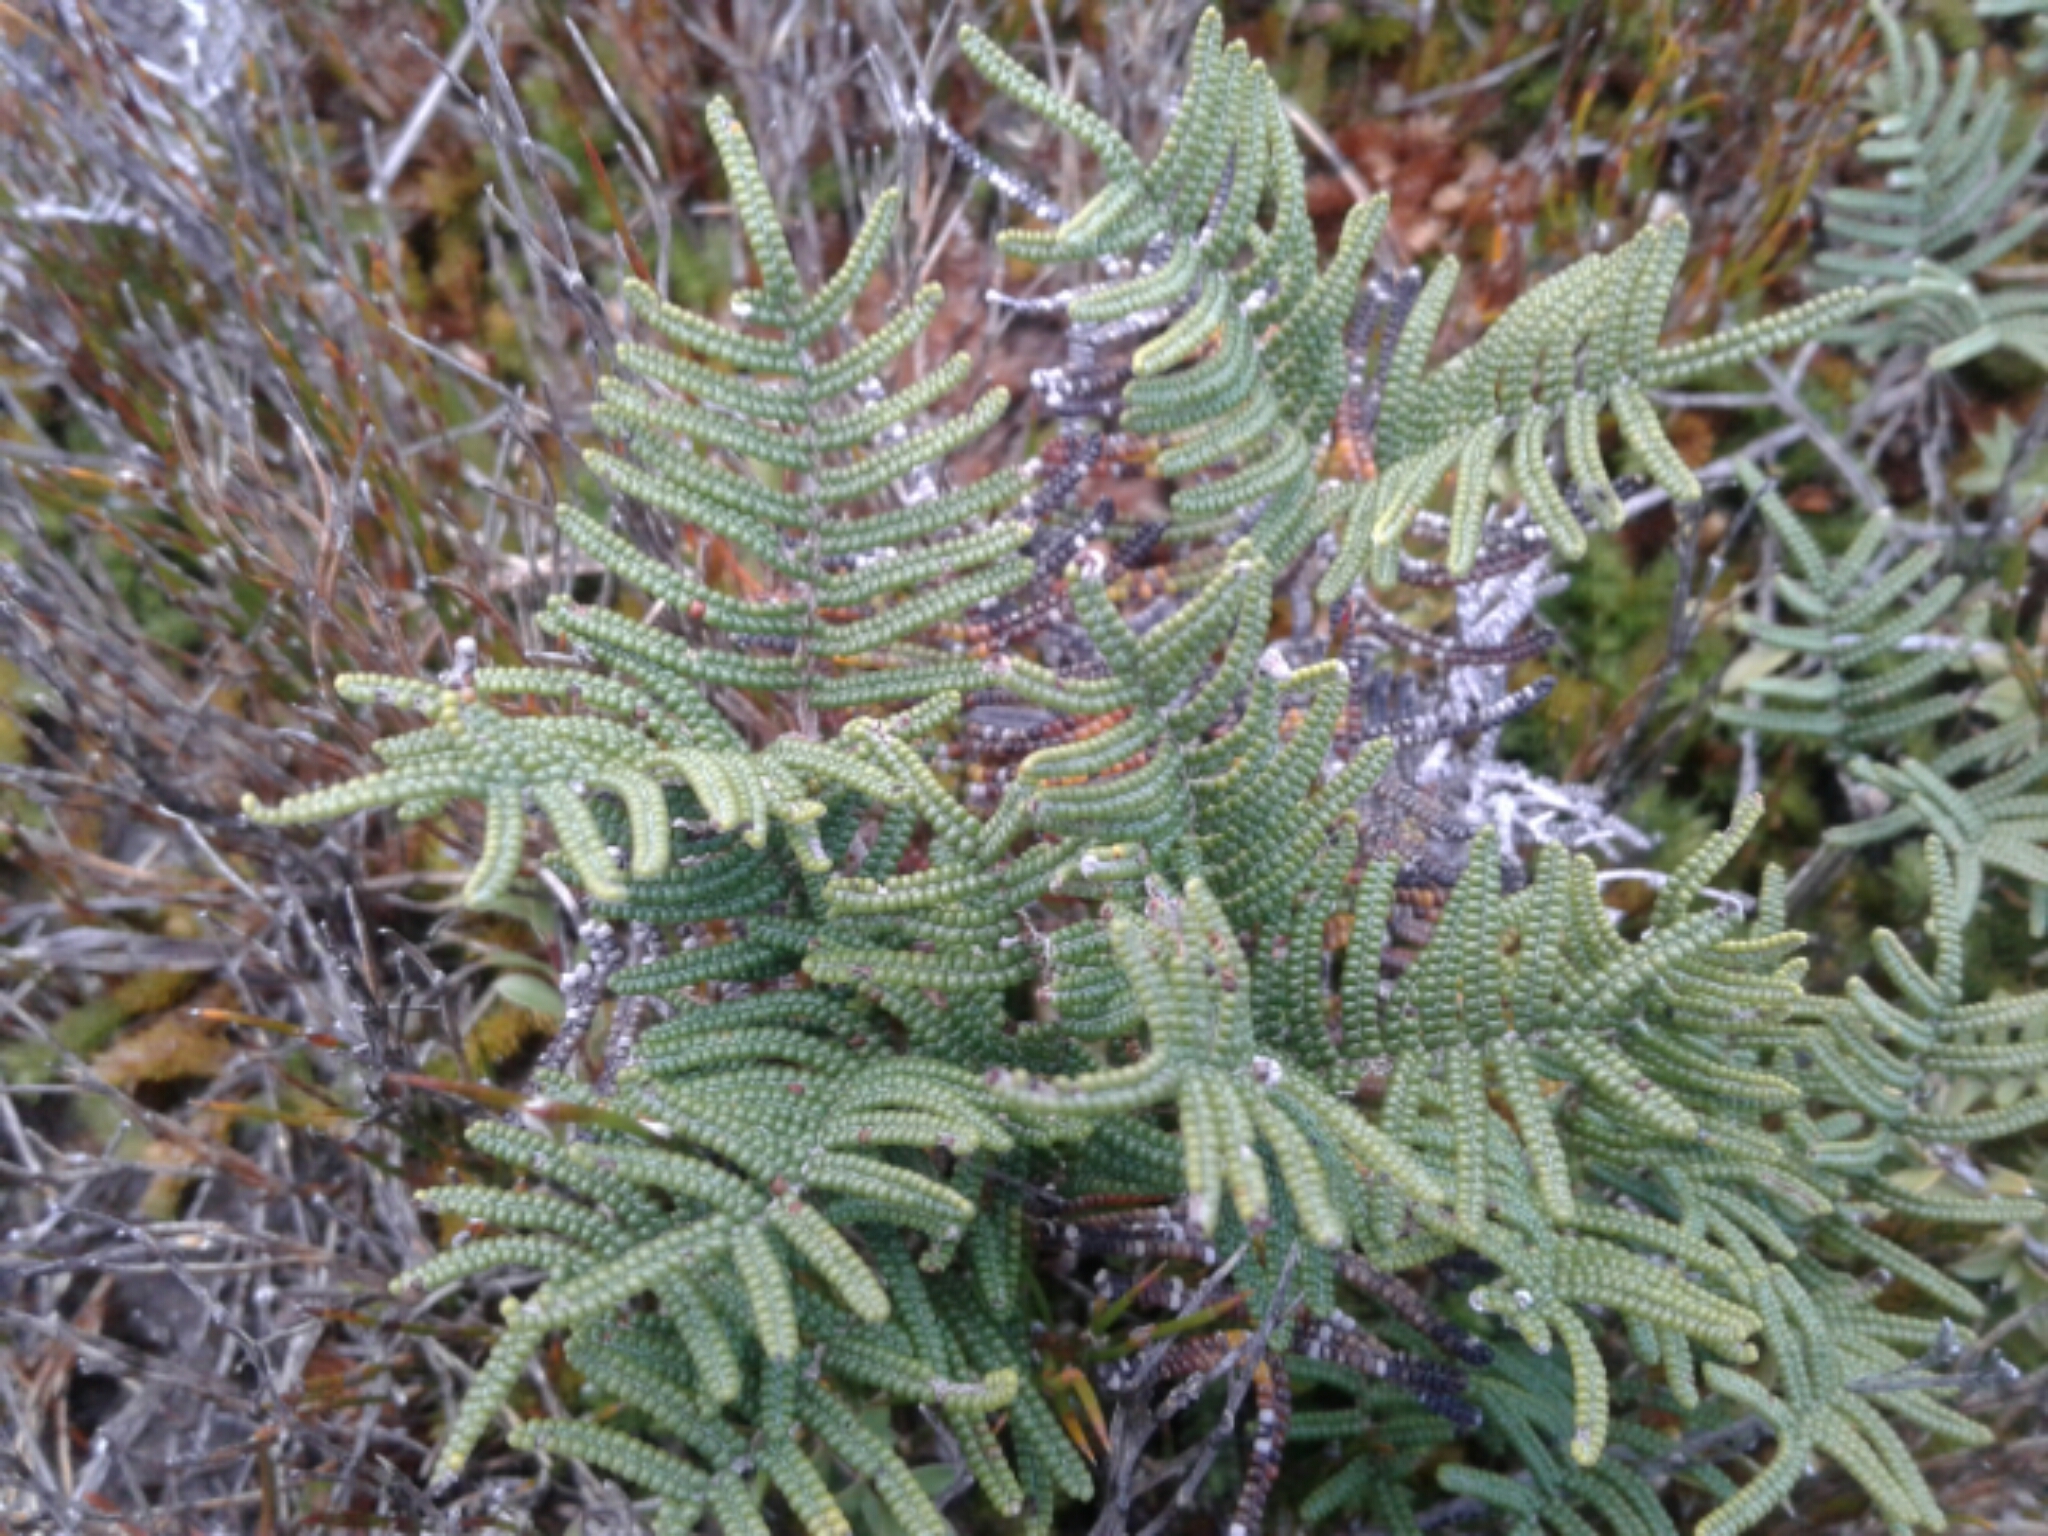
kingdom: Plantae
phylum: Tracheophyta
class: Polypodiopsida
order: Gleicheniales
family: Gleicheniaceae
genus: Gleichenia
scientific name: Gleichenia alpina
